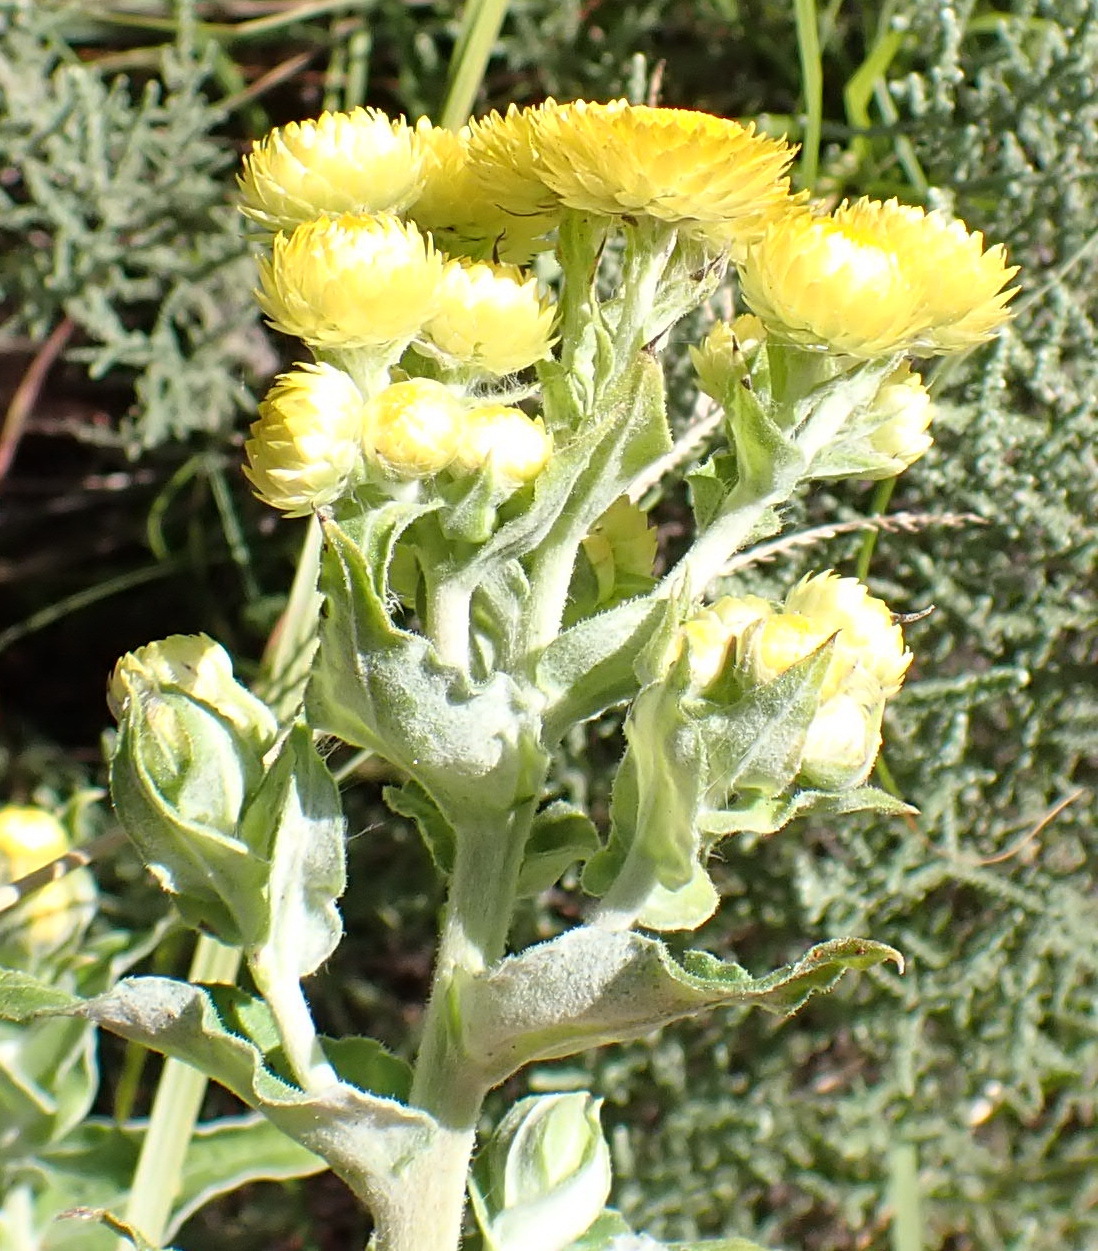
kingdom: Plantae
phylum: Tracheophyta
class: Magnoliopsida
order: Asterales
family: Asteraceae
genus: Helichrysum
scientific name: Helichrysum foetidum
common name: Stinking everlasting
